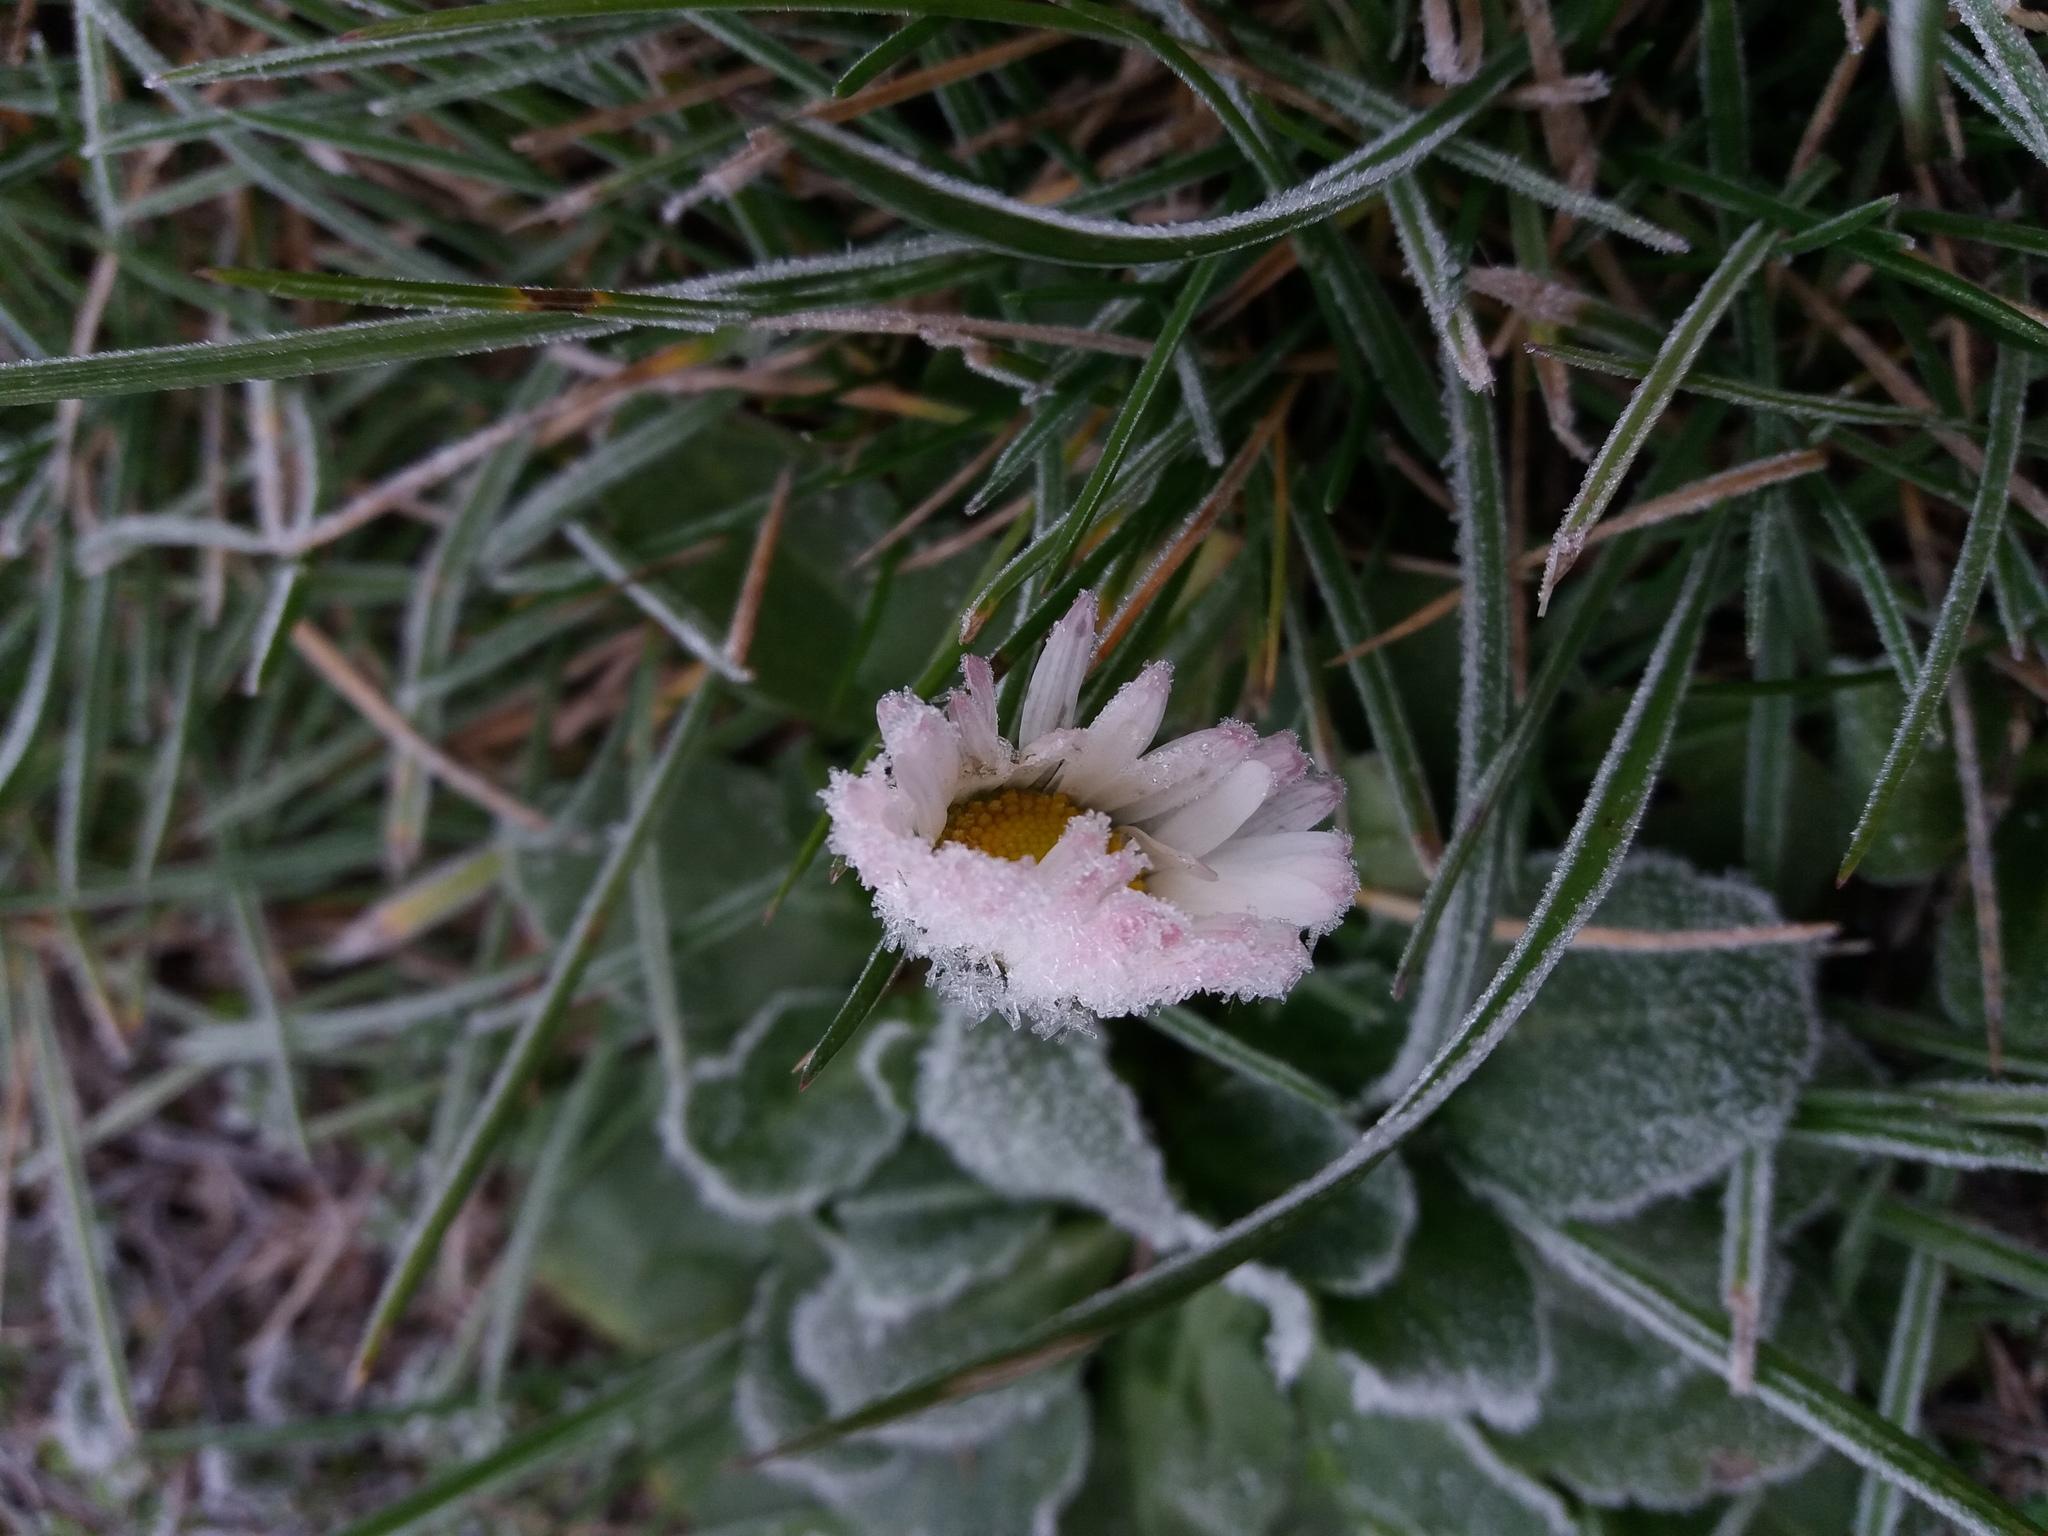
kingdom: Plantae
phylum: Tracheophyta
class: Magnoliopsida
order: Asterales
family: Asteraceae
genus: Bellis
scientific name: Bellis perennis
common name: Lawndaisy
